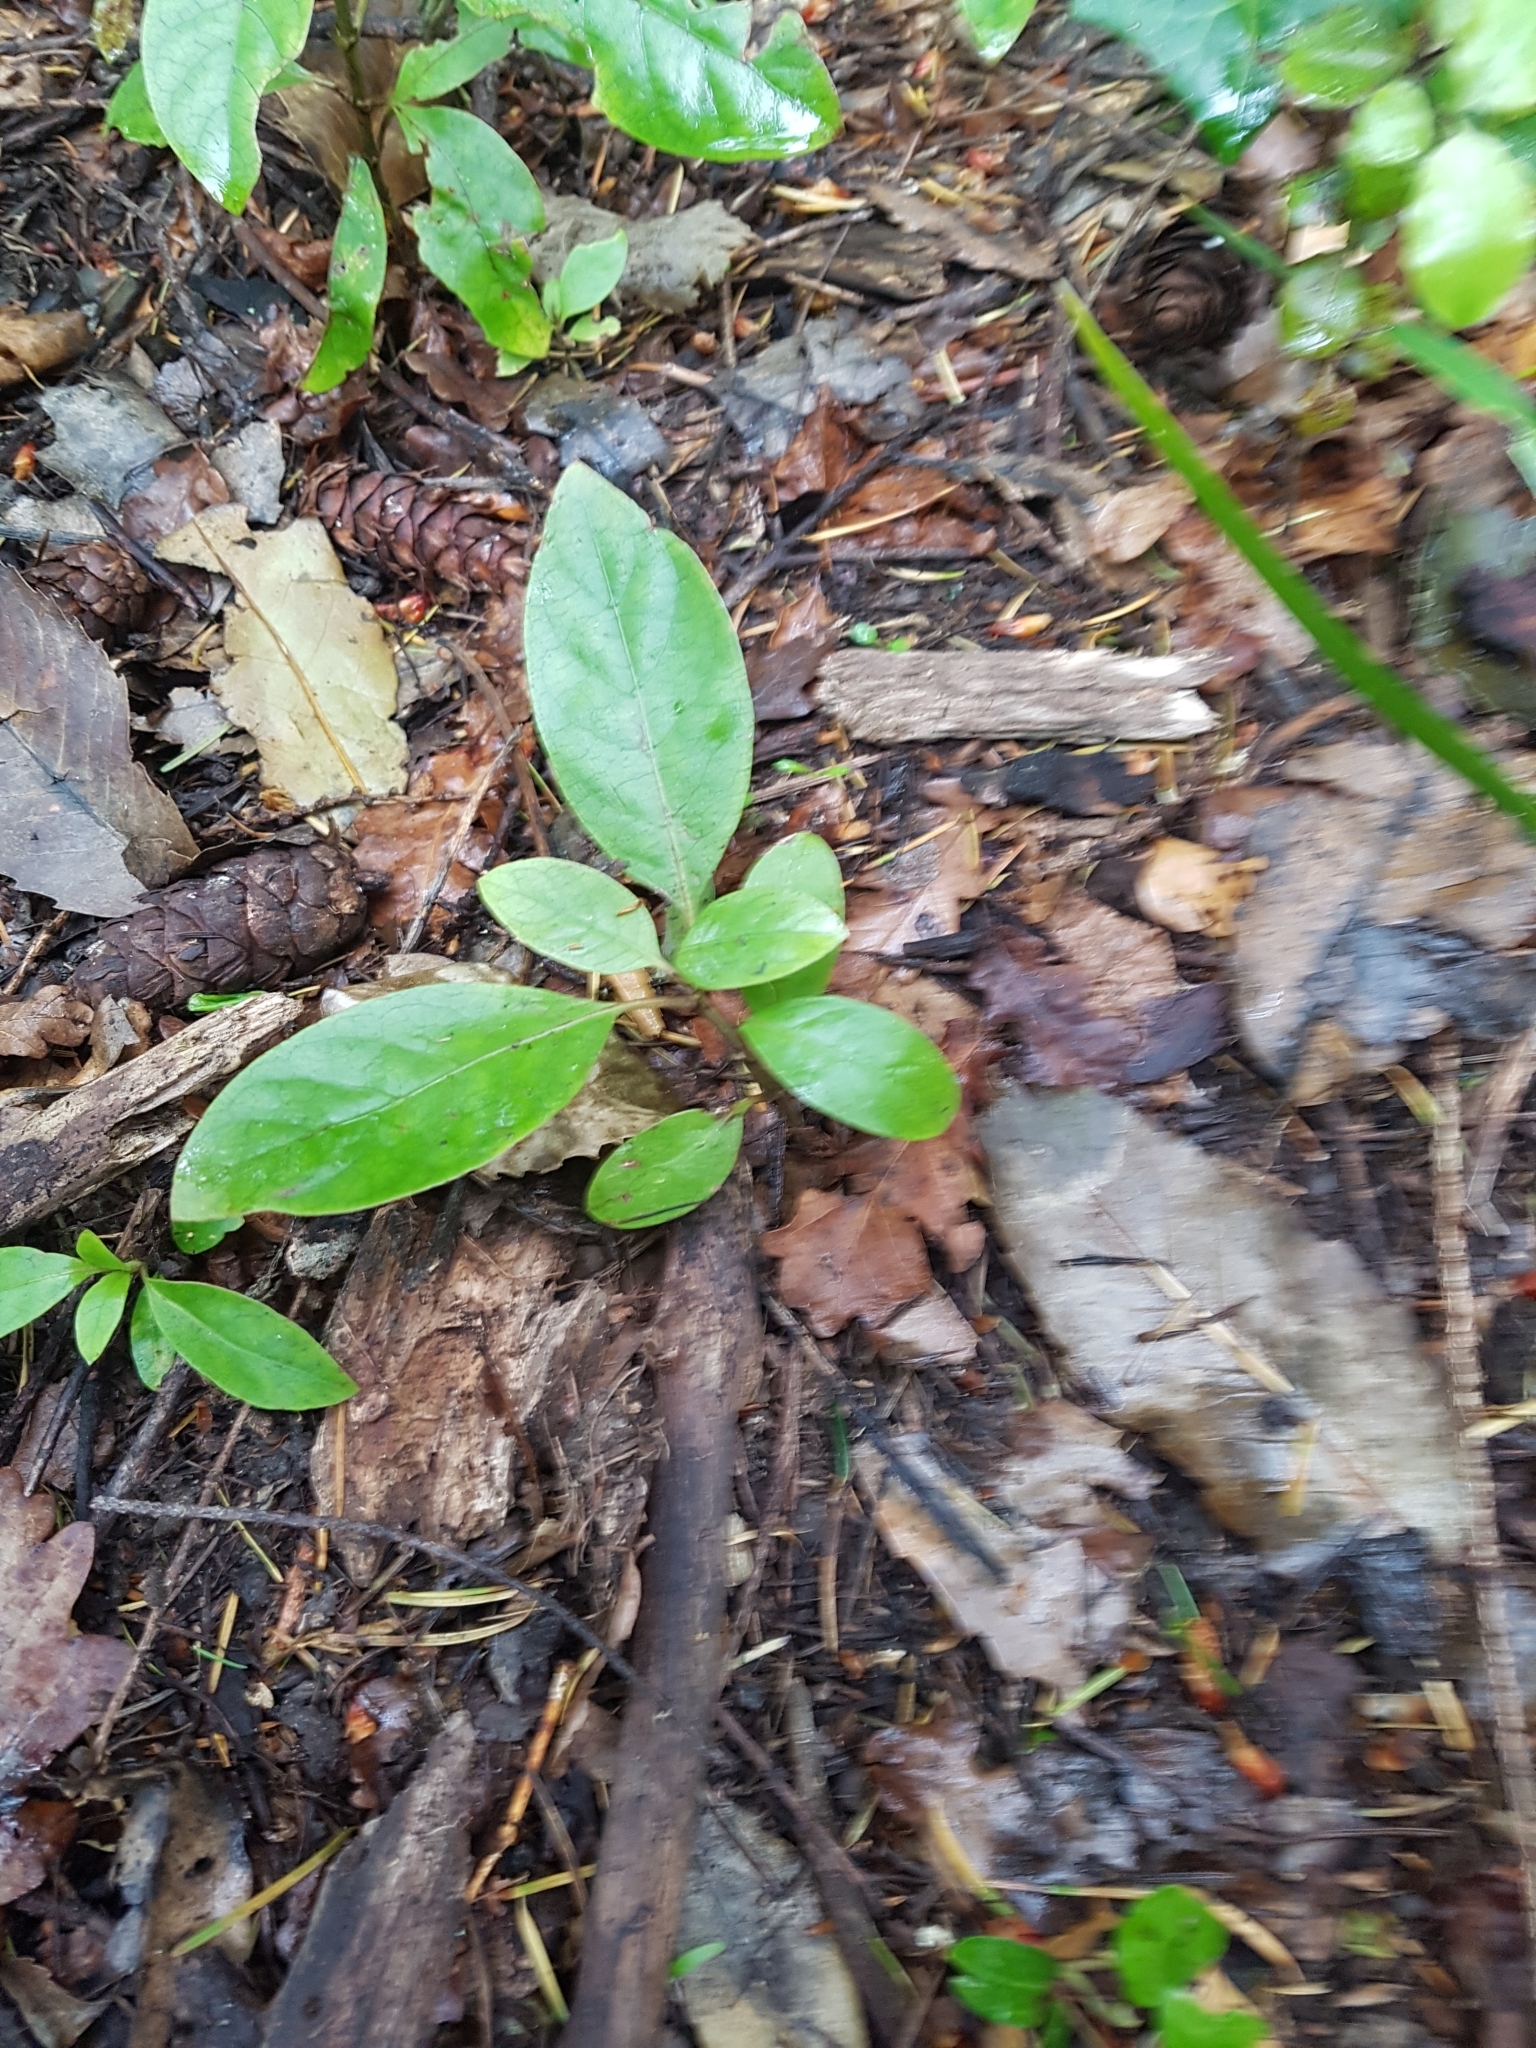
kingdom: Plantae
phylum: Tracheophyta
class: Magnoliopsida
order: Gentianales
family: Rubiaceae
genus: Coprosma
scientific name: Coprosma autumnalis
